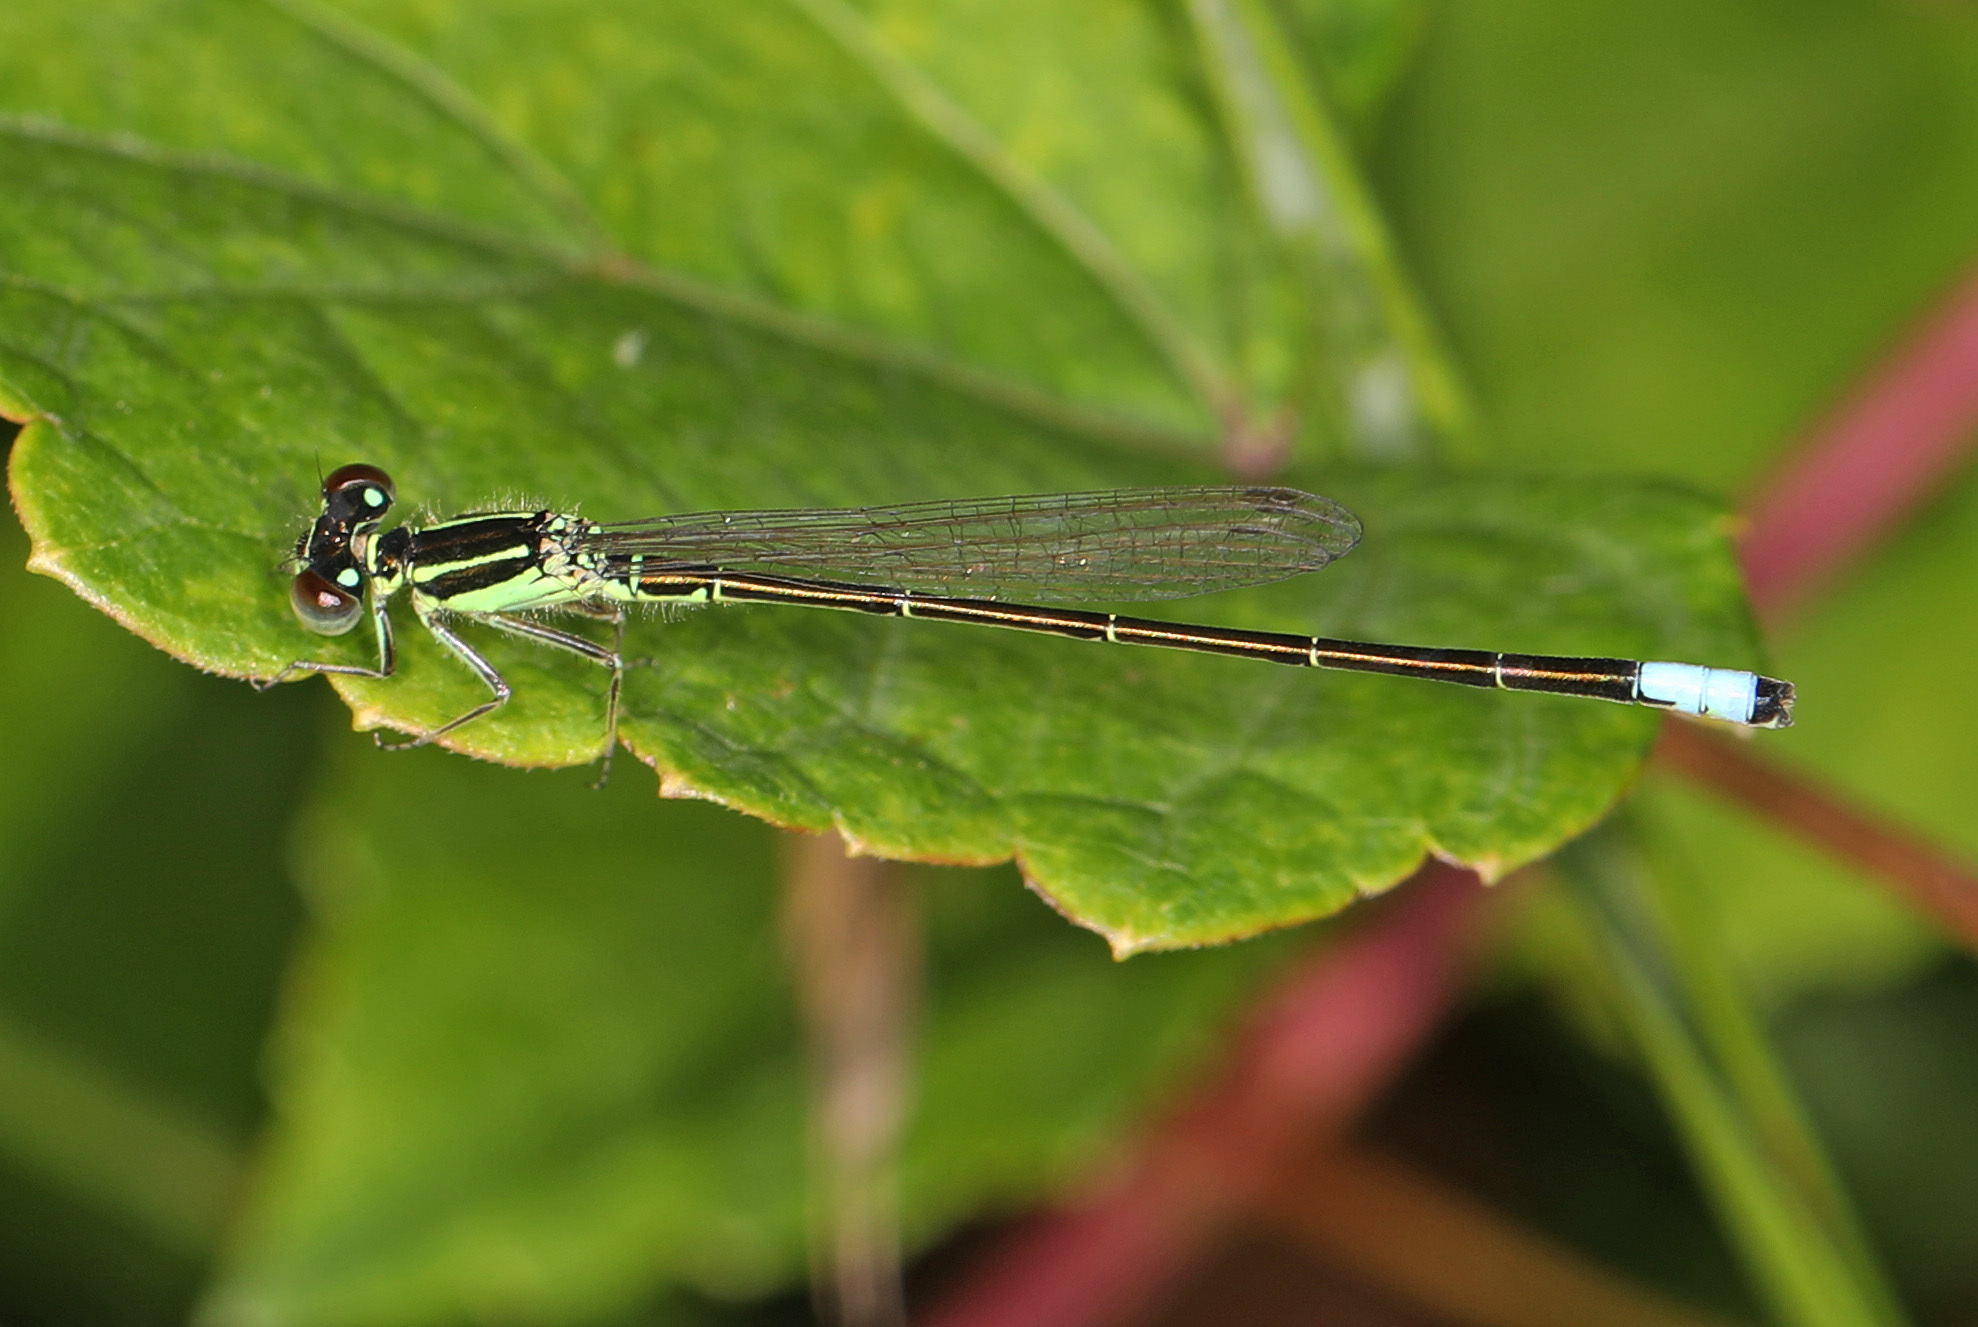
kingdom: Animalia
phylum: Arthropoda
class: Insecta
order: Odonata
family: Coenagrionidae
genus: Ischnura
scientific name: Ischnura verticalis
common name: Eastern forktail
